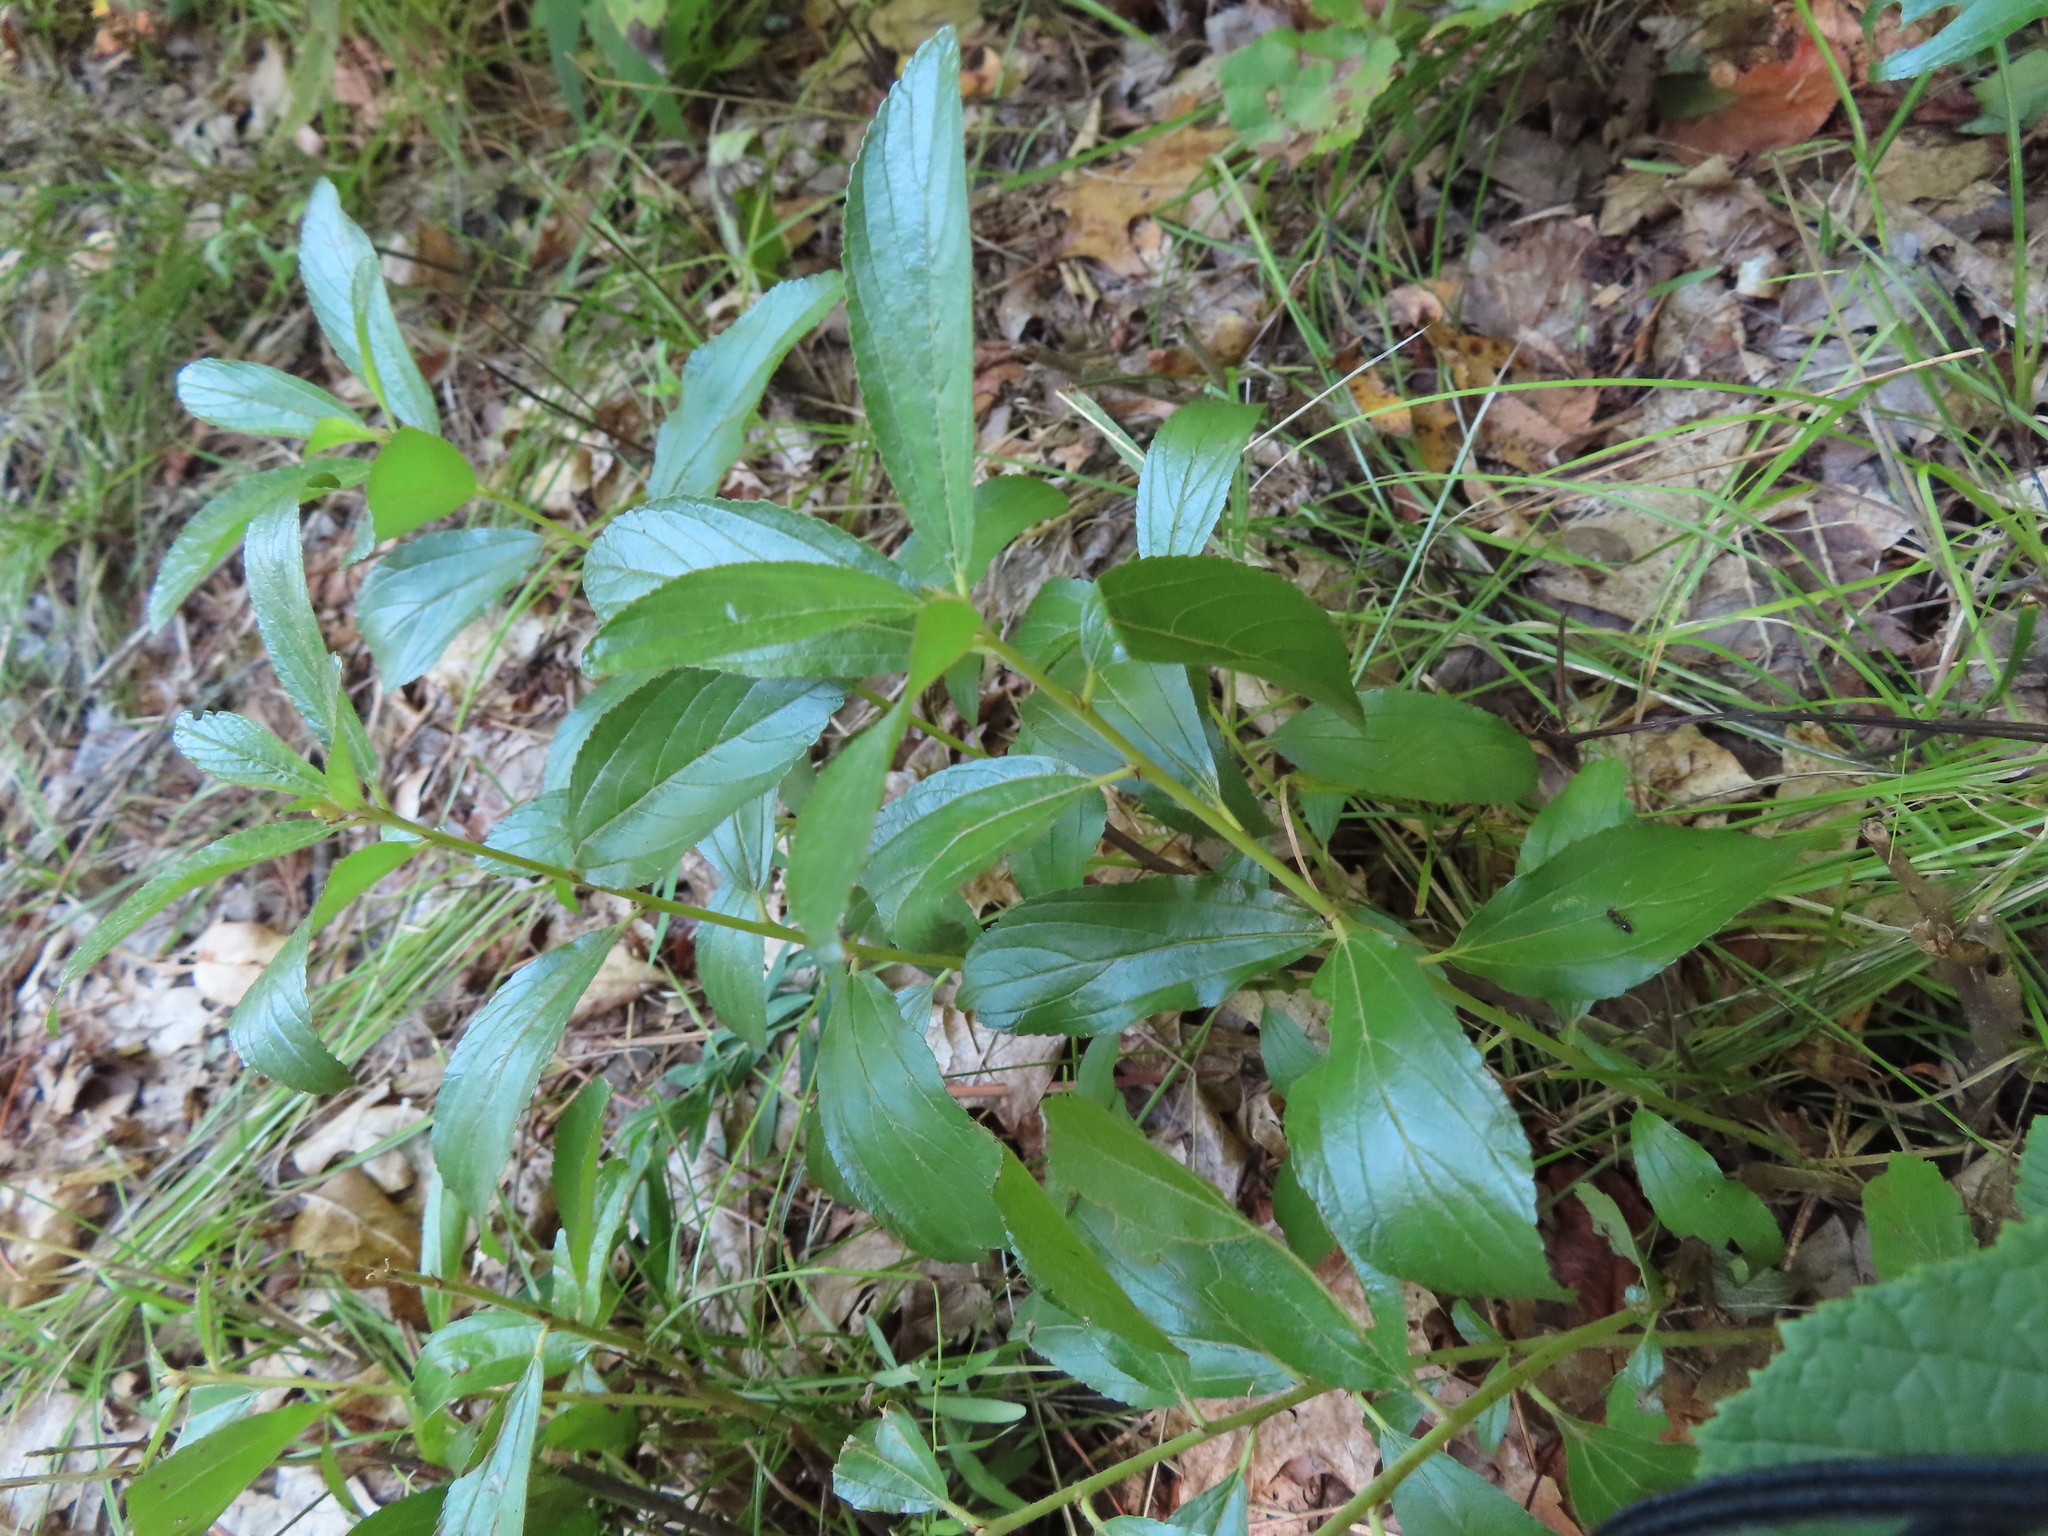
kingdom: Plantae
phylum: Tracheophyta
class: Magnoliopsida
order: Rosales
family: Rhamnaceae
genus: Ceanothus
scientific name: Ceanothus herbaceus
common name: Inland ceanothus
